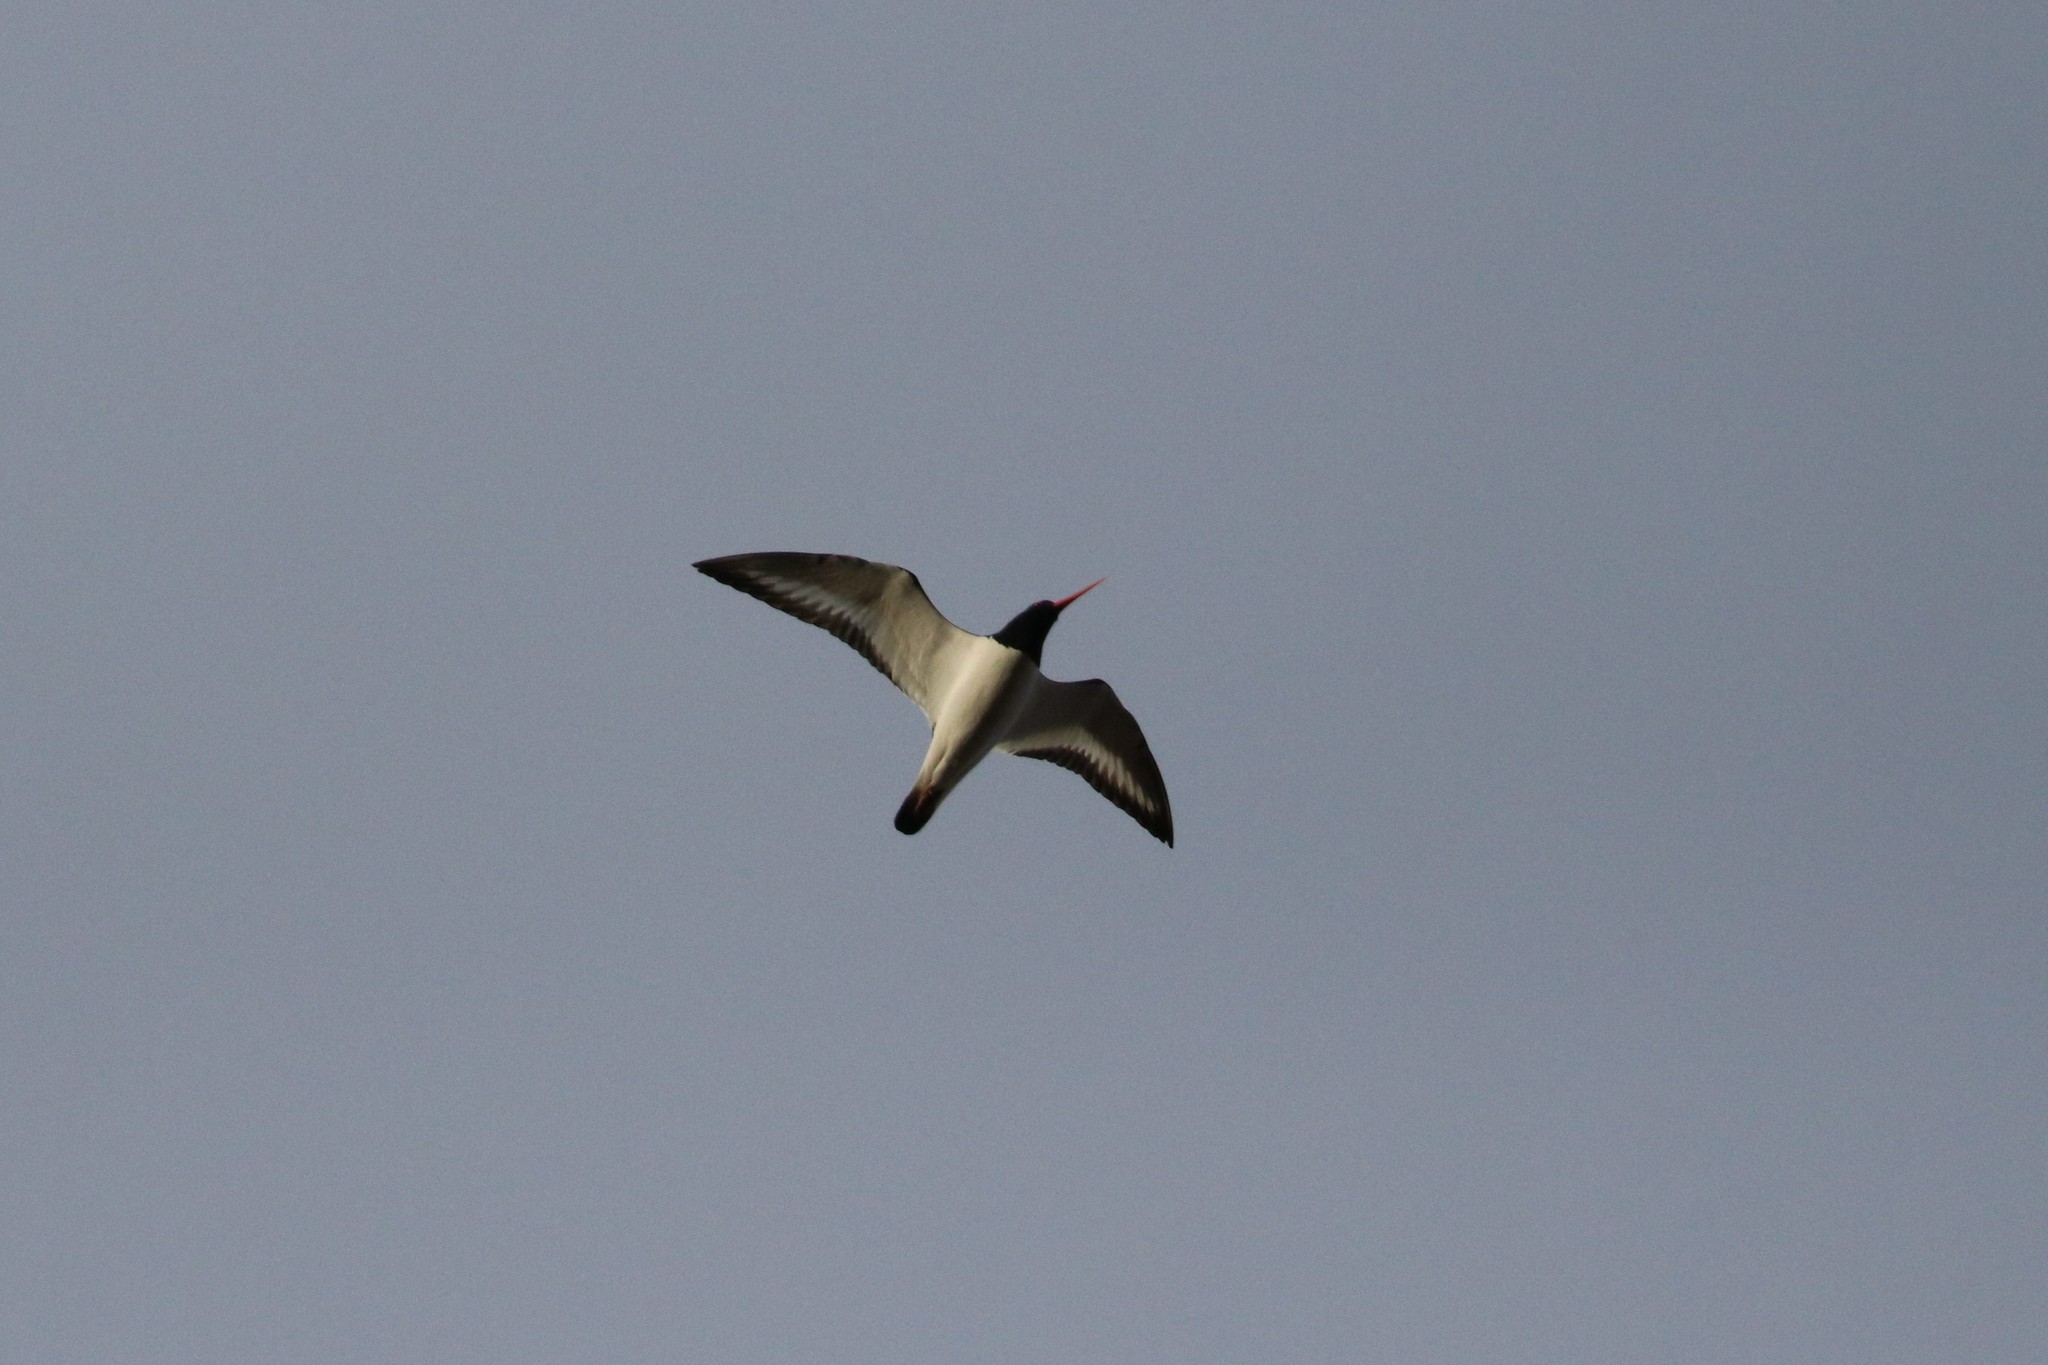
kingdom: Animalia
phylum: Chordata
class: Aves
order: Charadriiformes
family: Haematopodidae
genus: Haematopus
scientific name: Haematopus ostralegus
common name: Eurasian oystercatcher
